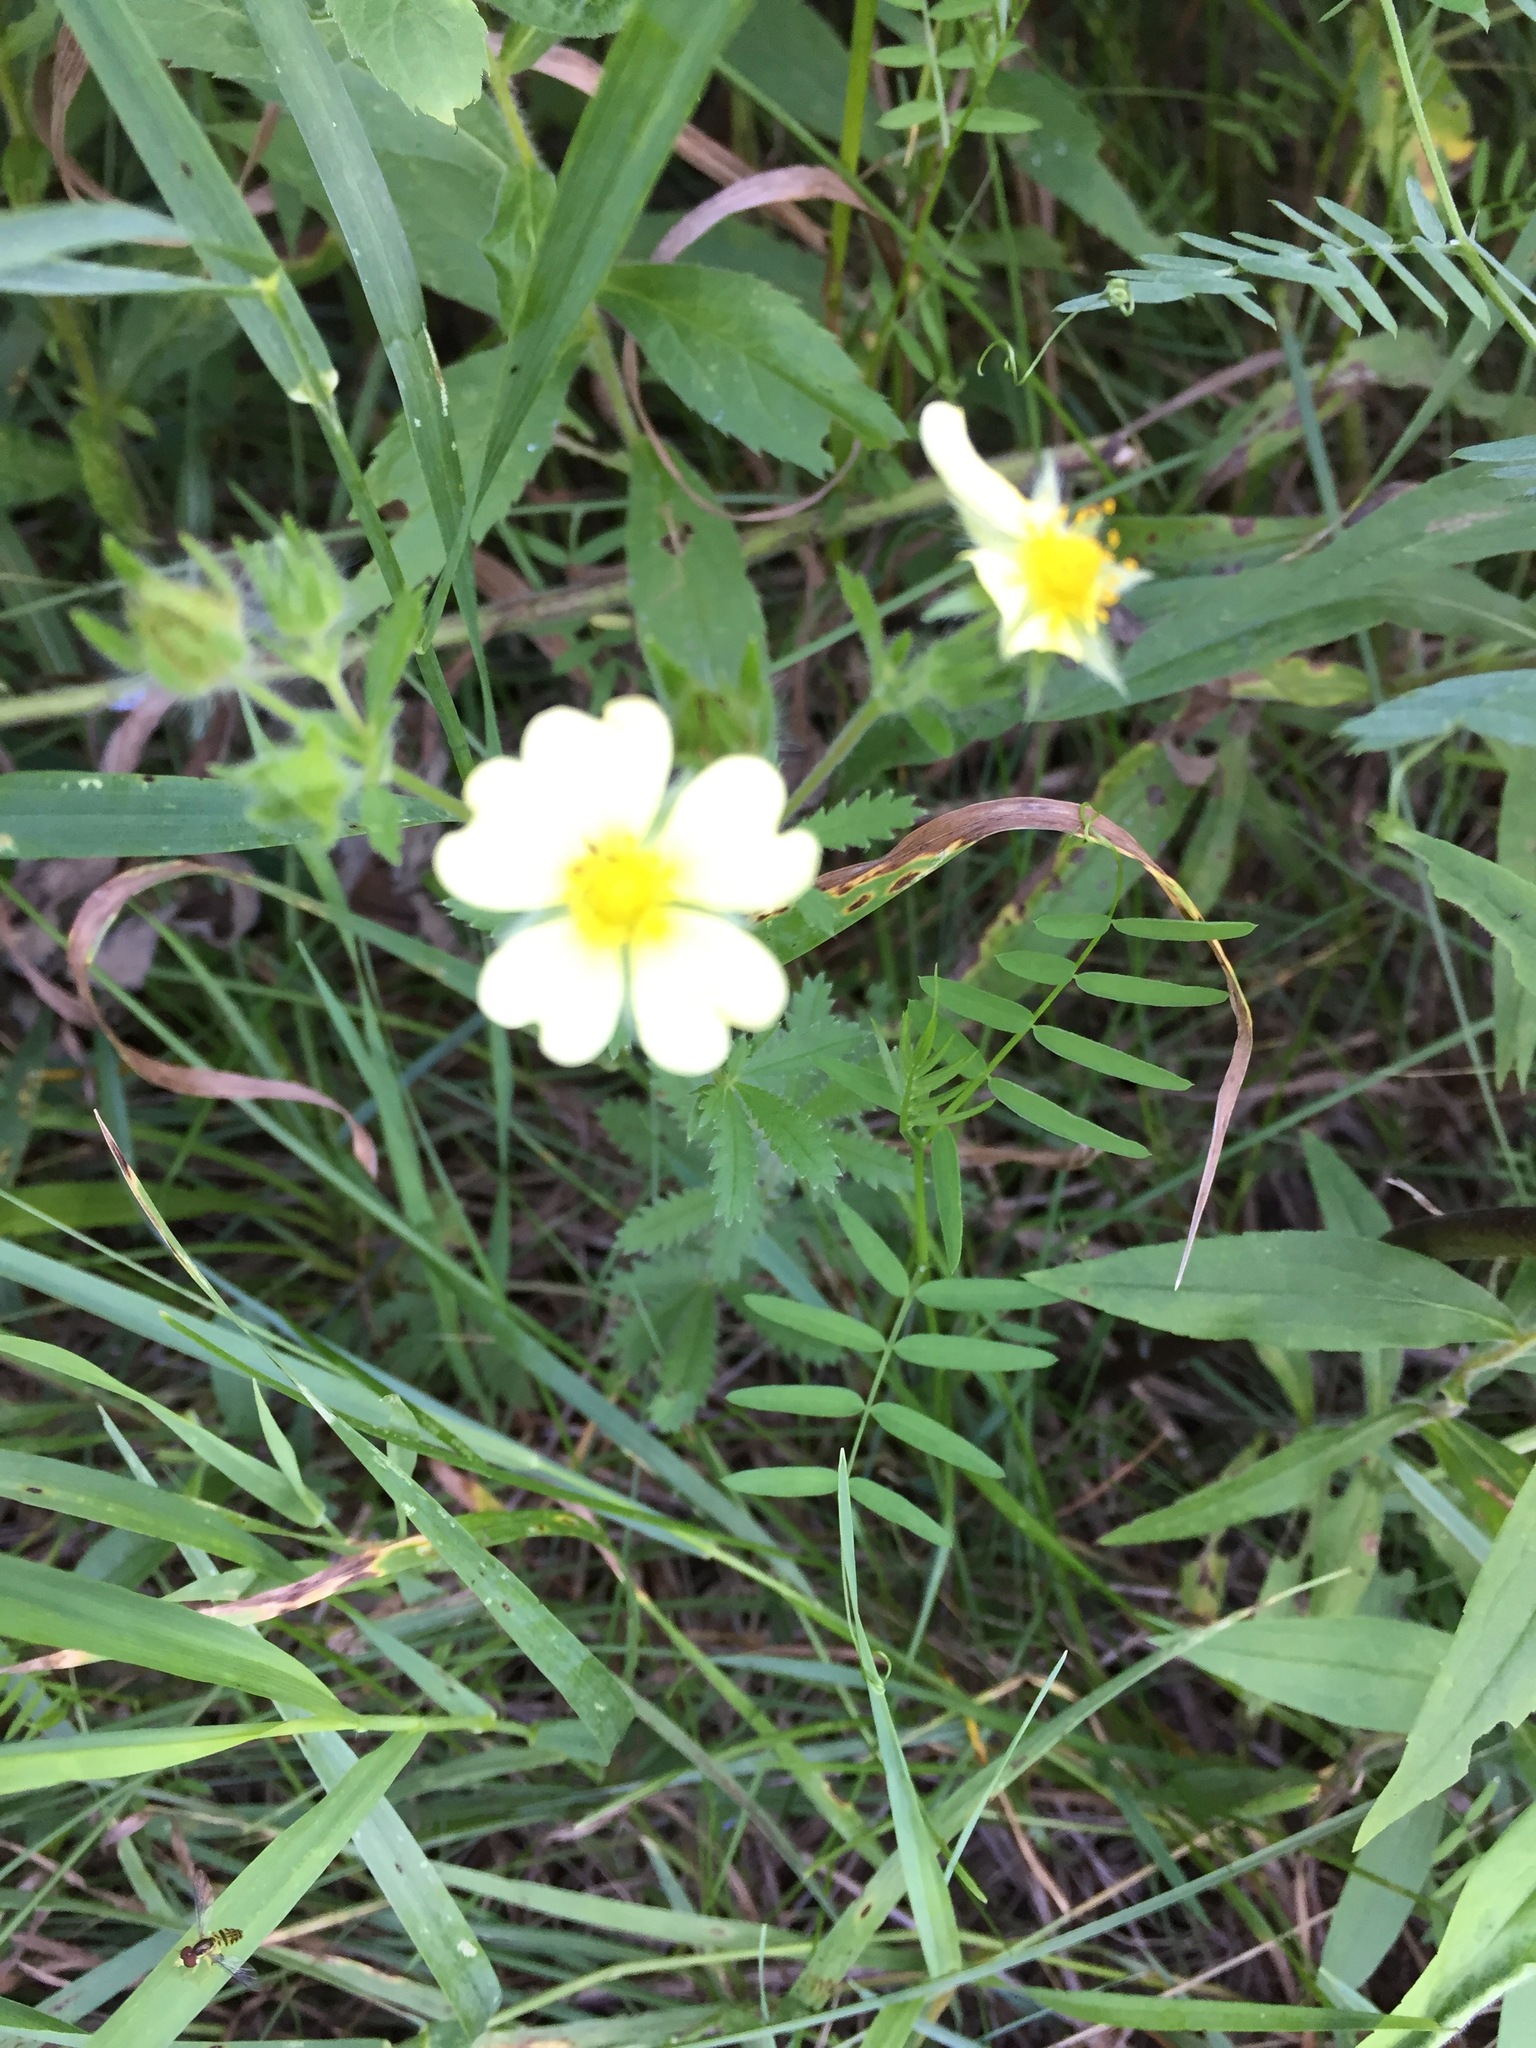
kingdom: Plantae
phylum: Tracheophyta
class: Magnoliopsida
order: Rosales
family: Rosaceae
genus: Potentilla
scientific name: Potentilla recta
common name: Sulphur cinquefoil
